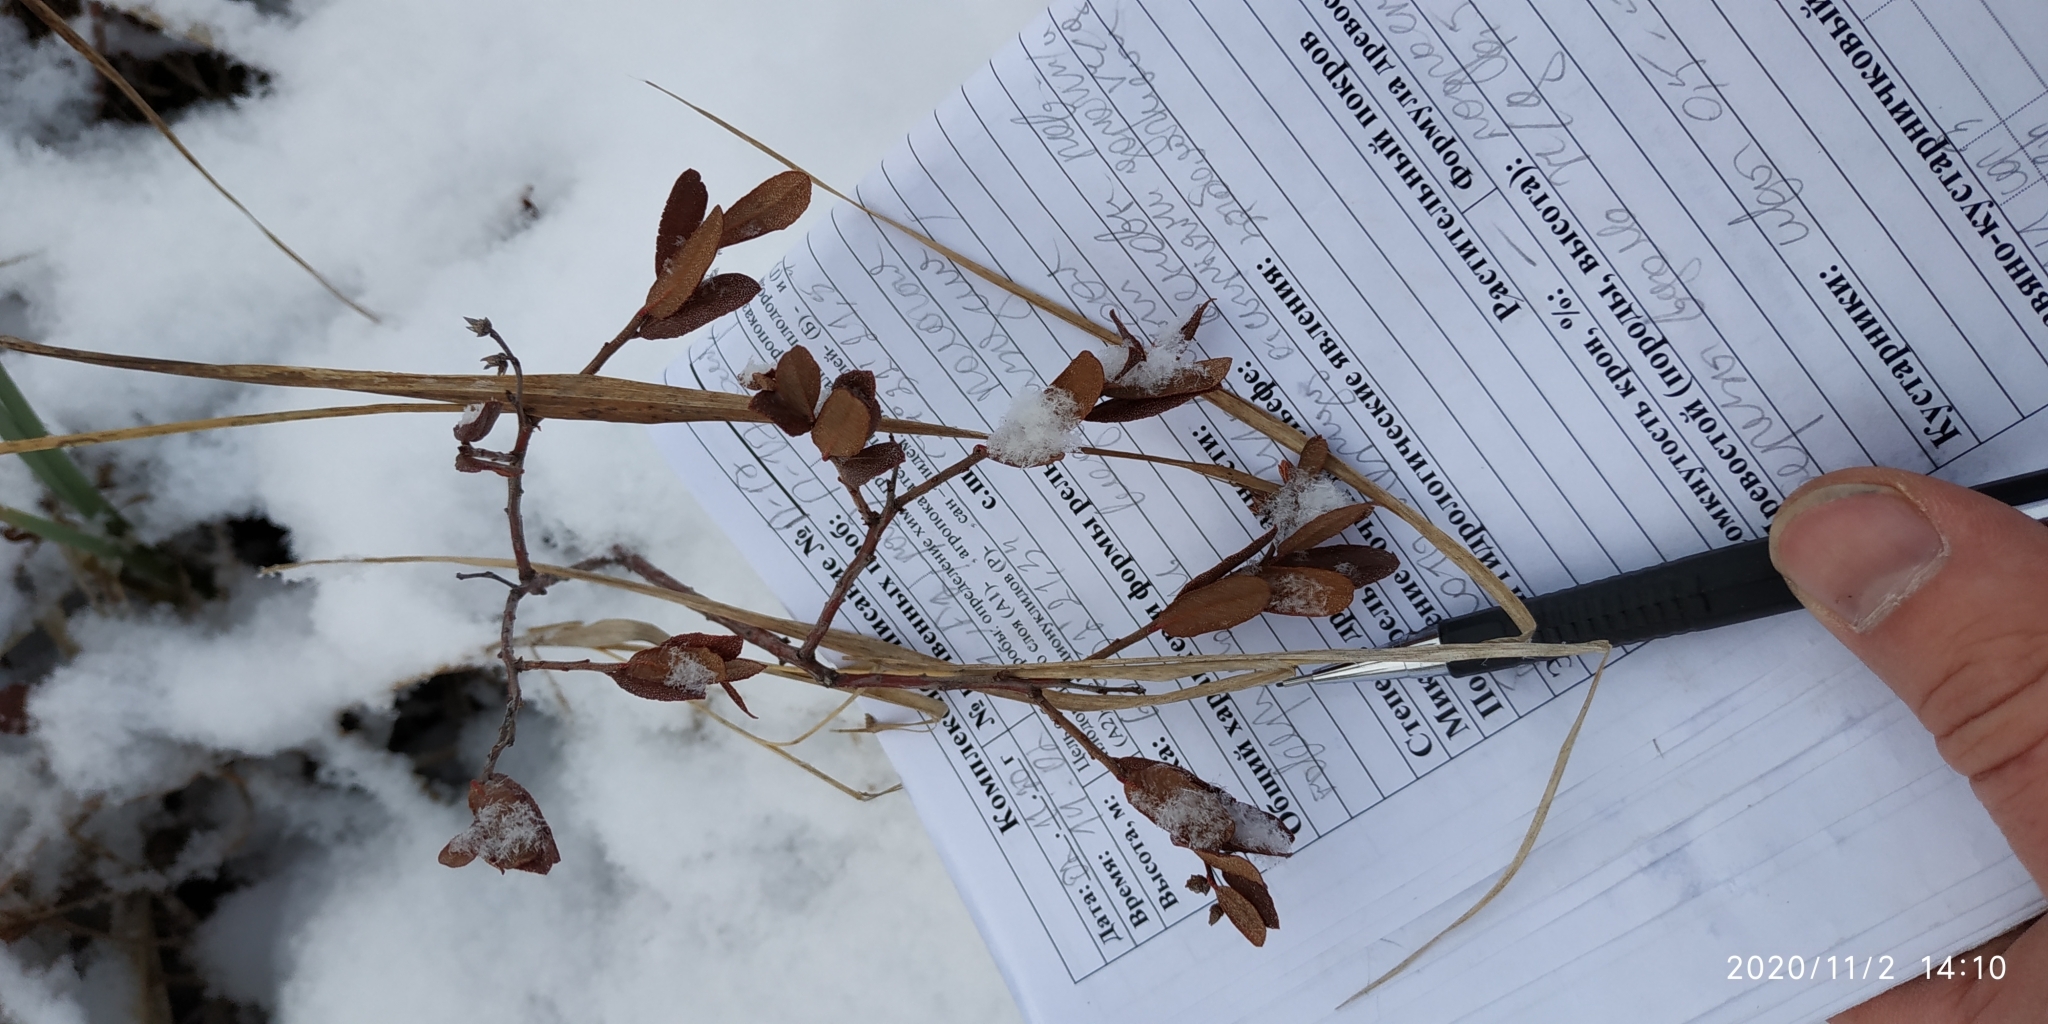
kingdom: Plantae
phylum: Tracheophyta
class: Magnoliopsida
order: Ericales
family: Ericaceae
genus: Chamaedaphne
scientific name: Chamaedaphne calyculata
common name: Leatherleaf
